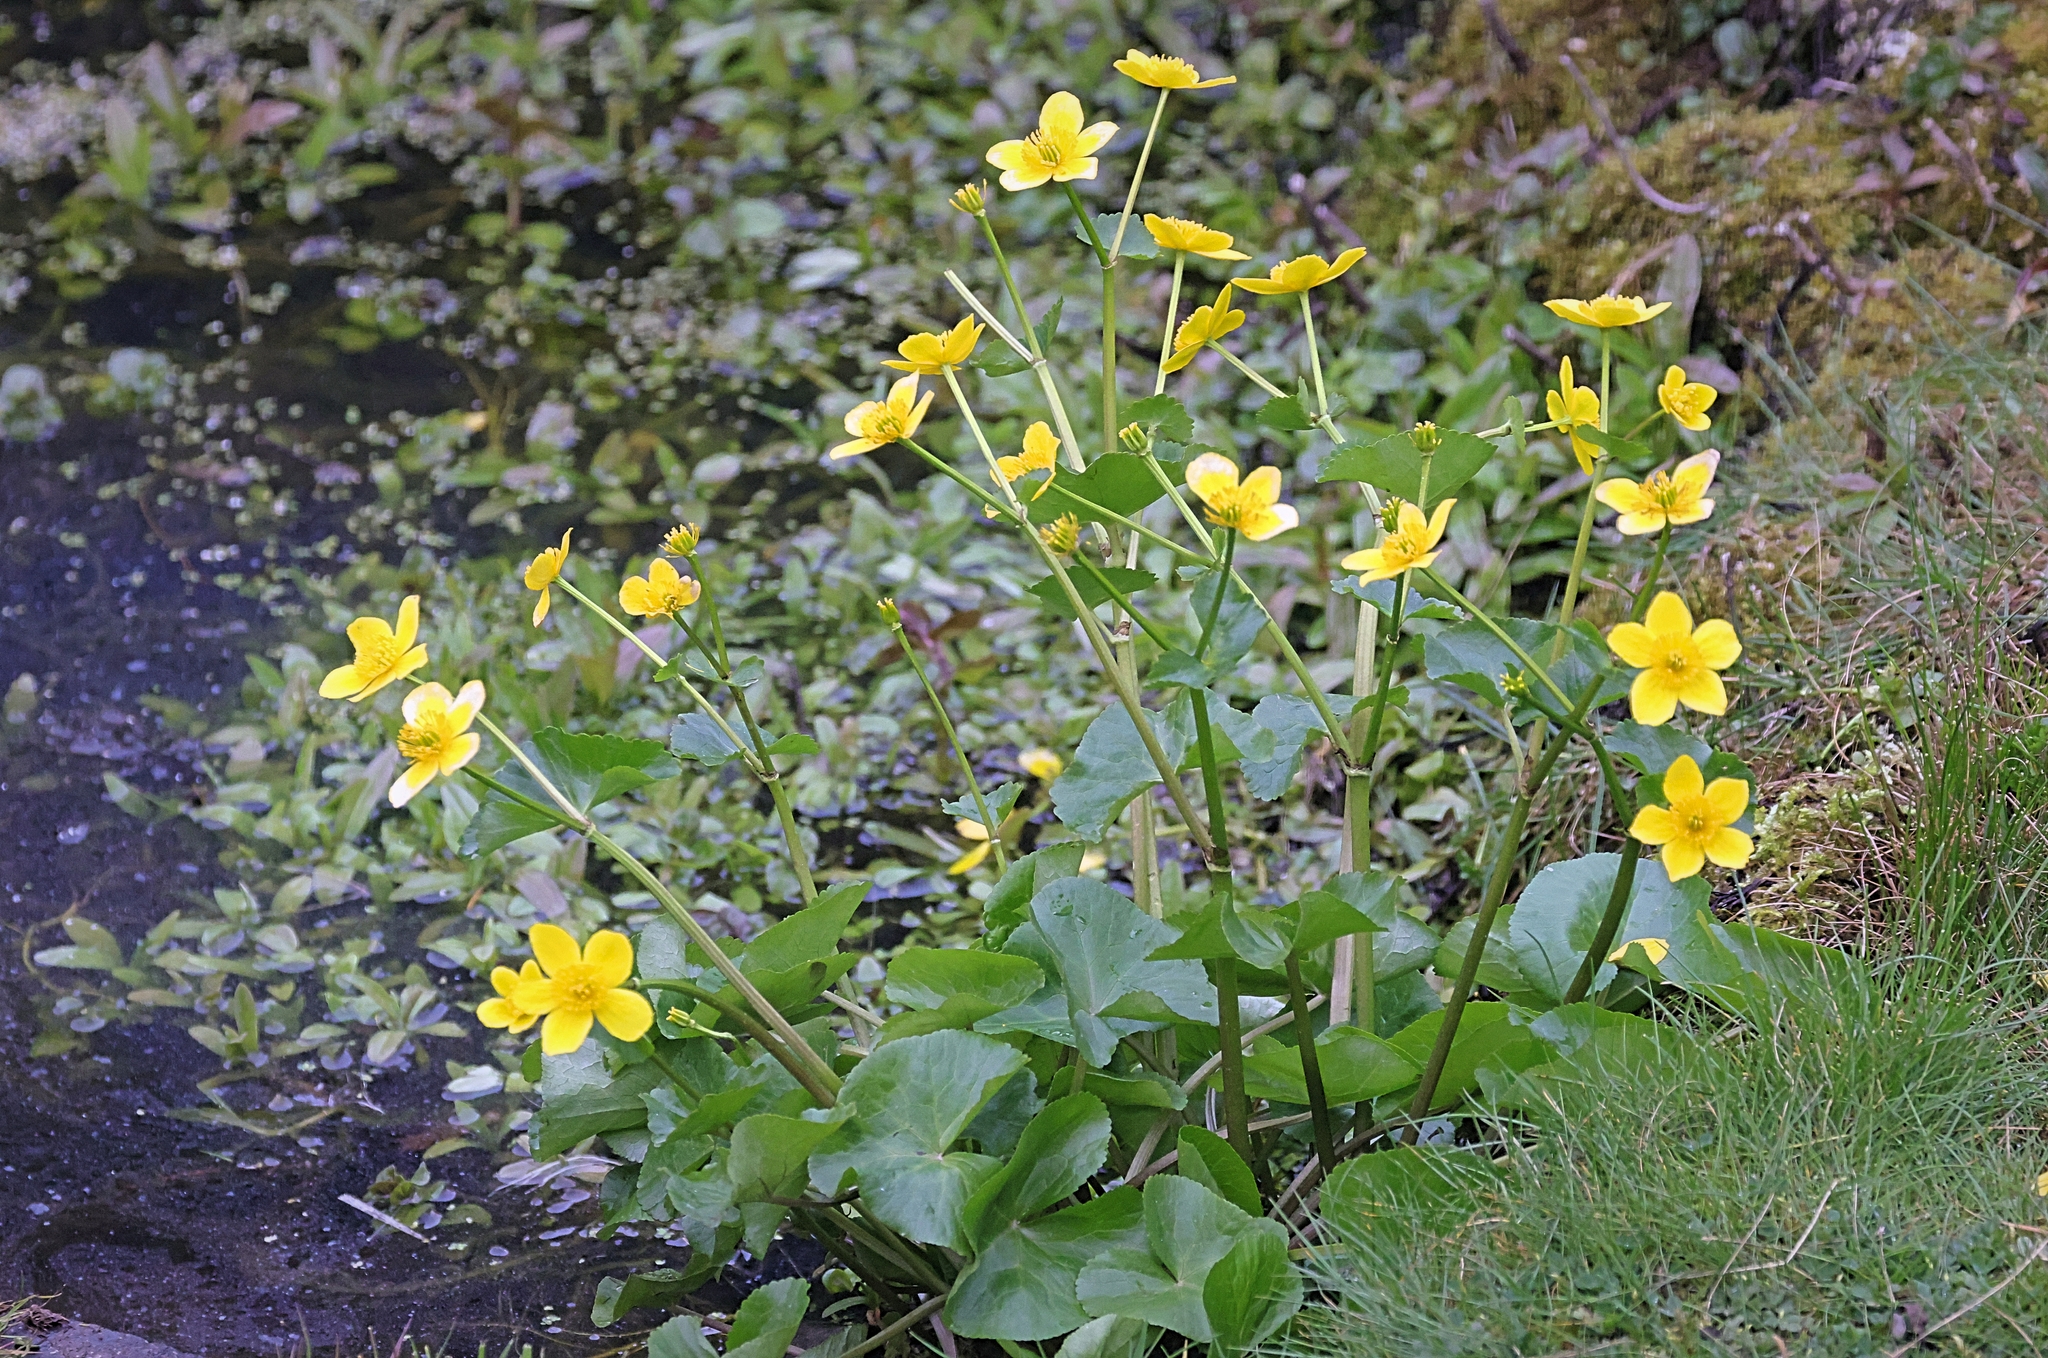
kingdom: Plantae
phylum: Tracheophyta
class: Magnoliopsida
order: Ranunculales
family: Ranunculaceae
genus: Caltha
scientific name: Caltha palustris
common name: Marsh marigold
